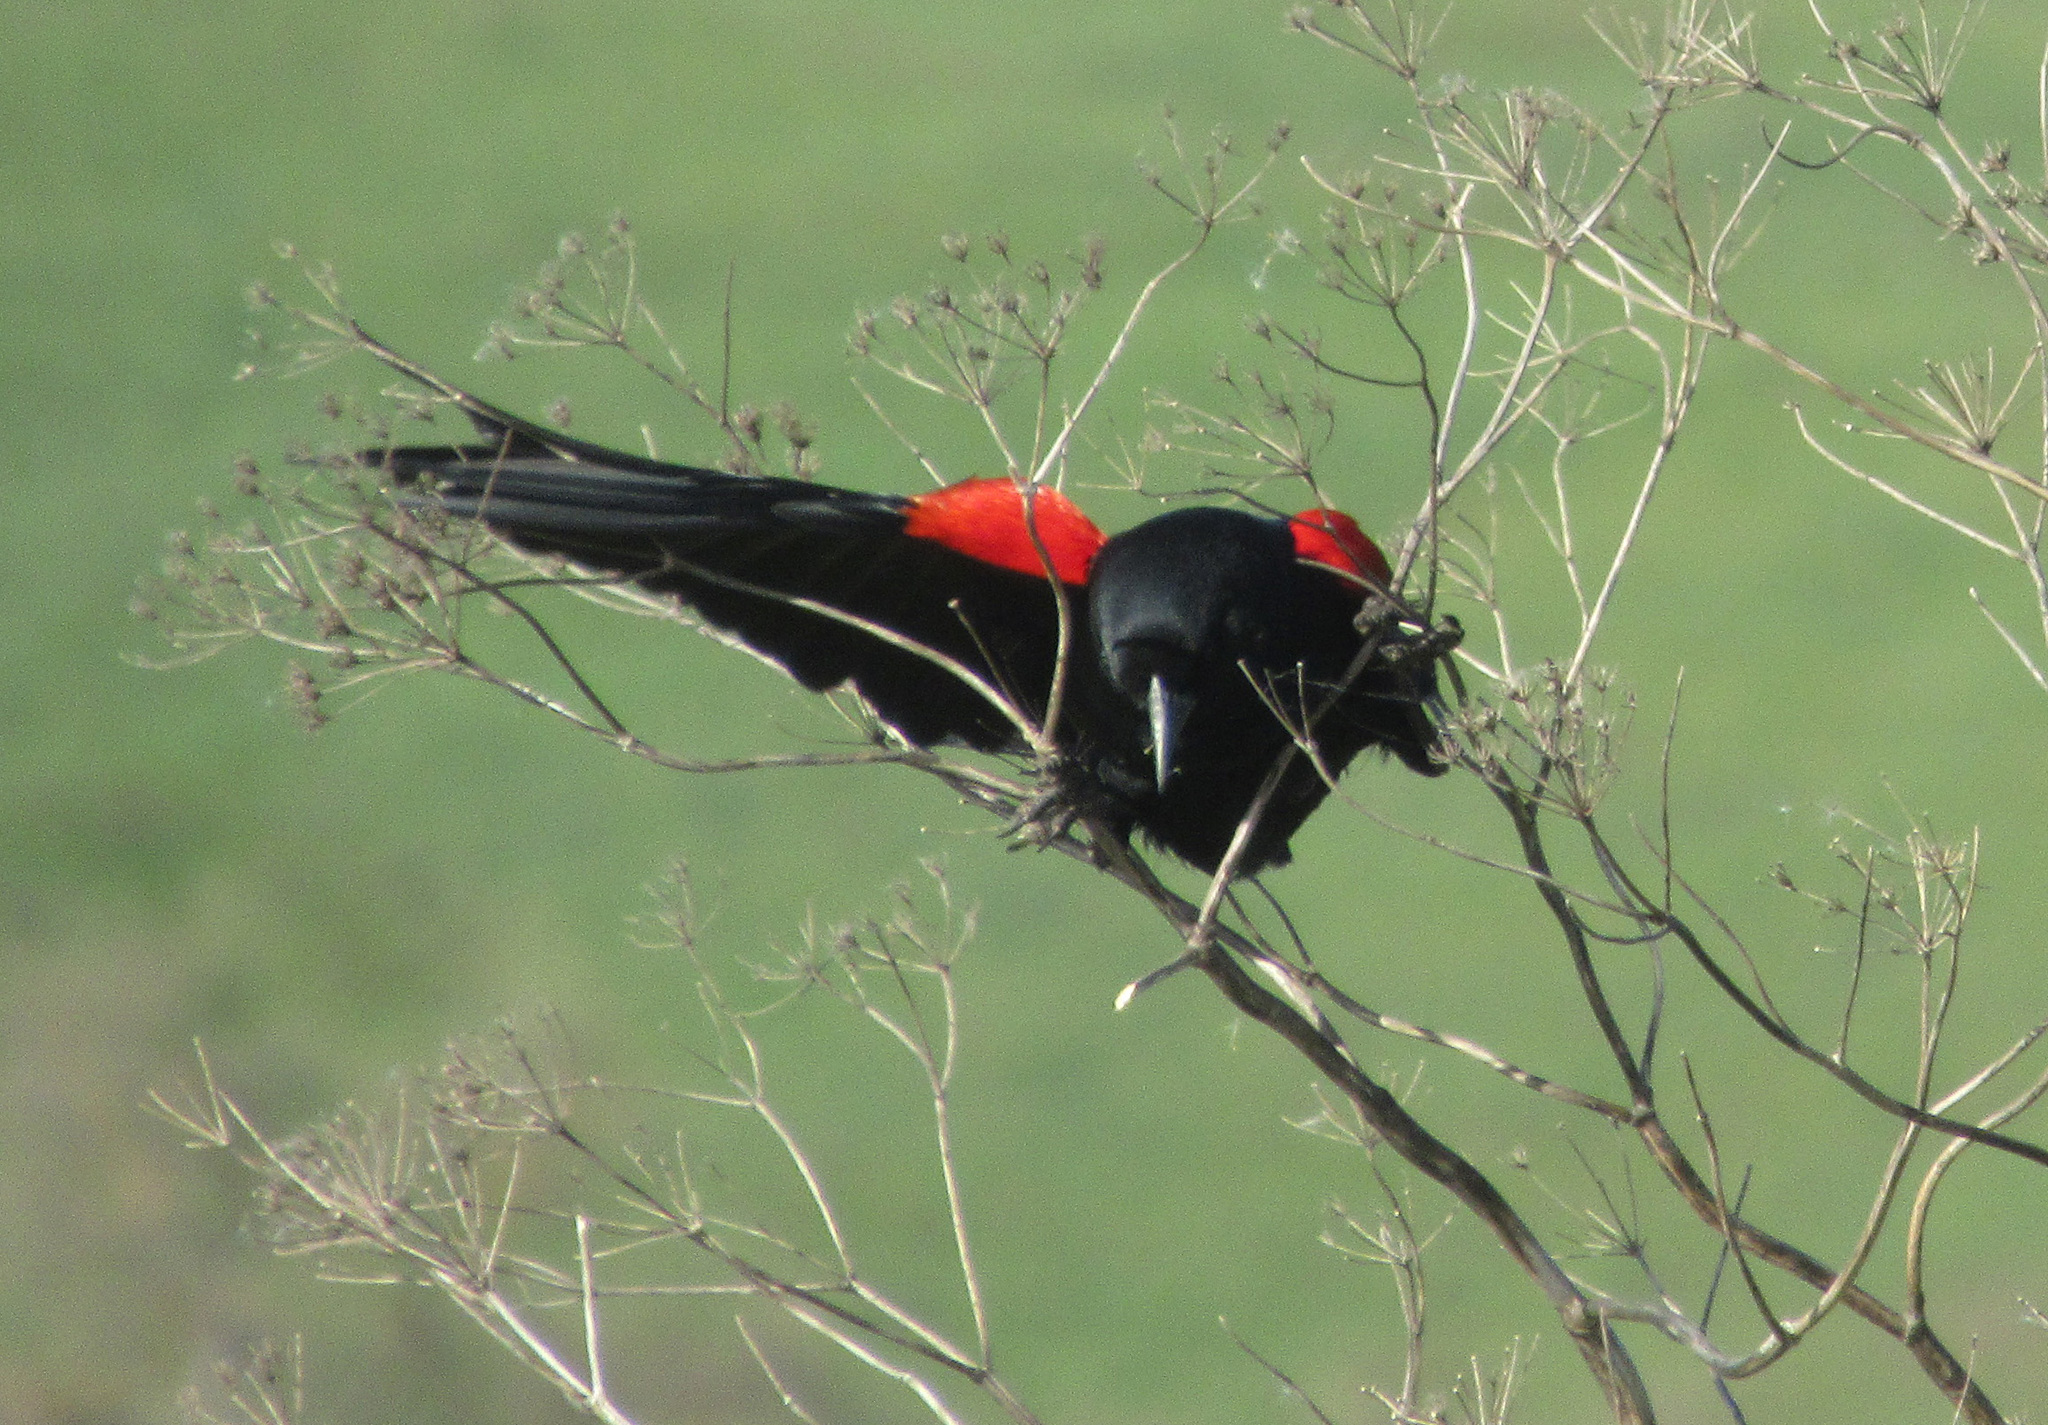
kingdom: Animalia
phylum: Chordata
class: Aves
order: Passeriformes
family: Icteridae
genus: Agelaius
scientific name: Agelaius phoeniceus
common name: Red-winged blackbird
